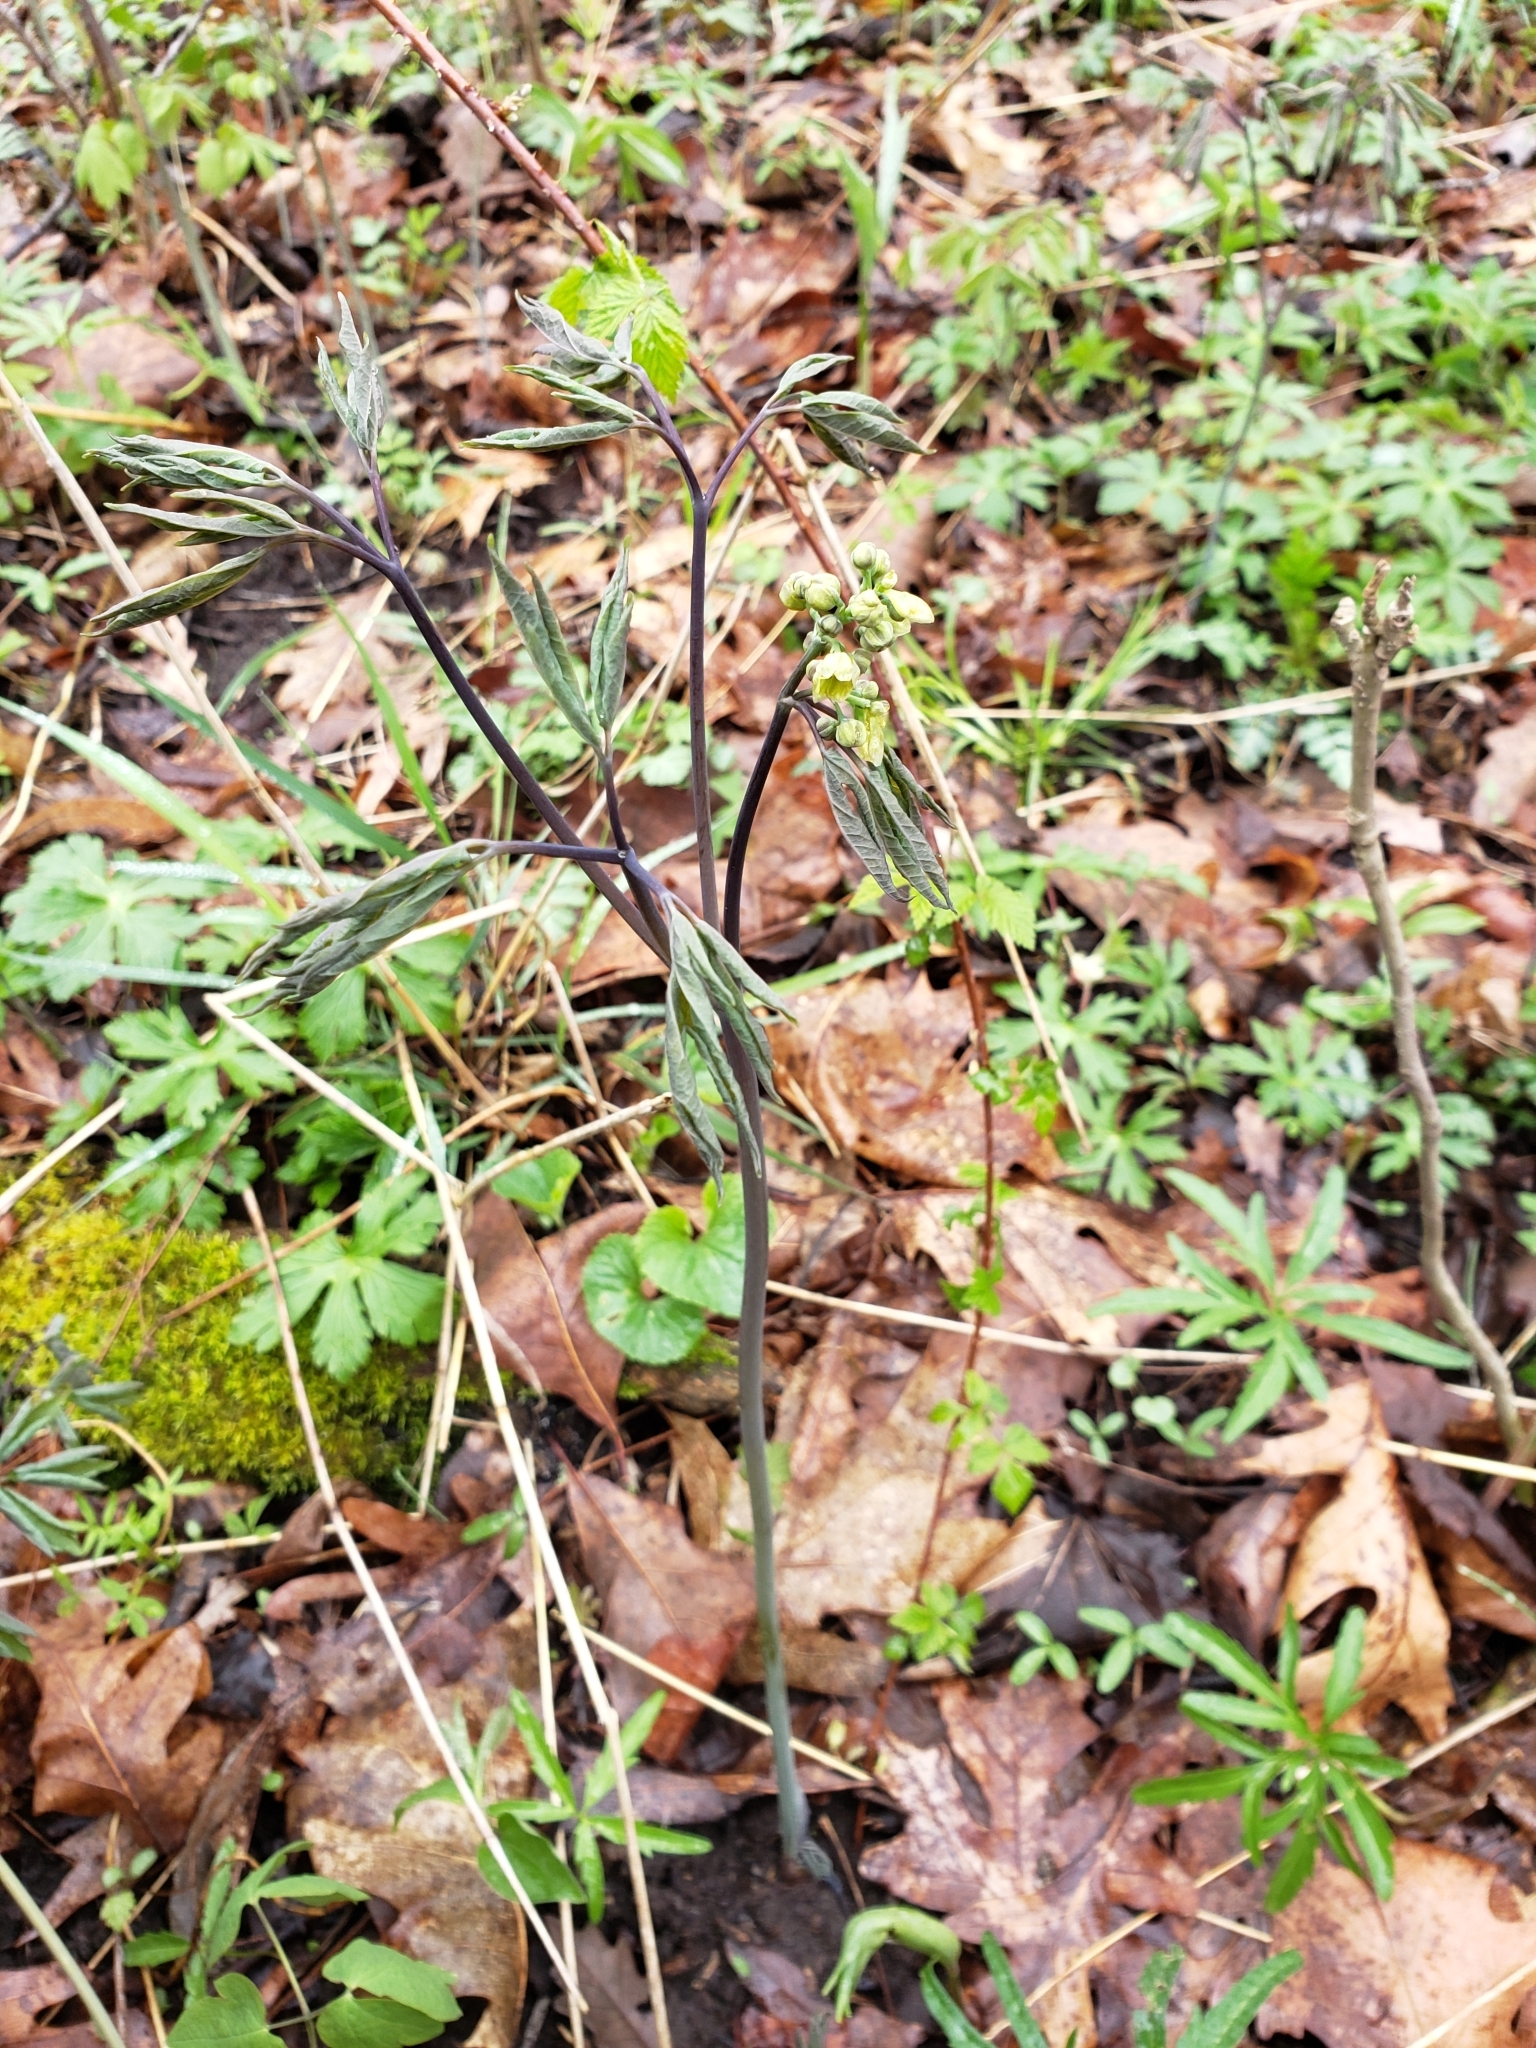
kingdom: Plantae
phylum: Tracheophyta
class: Magnoliopsida
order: Ranunculales
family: Berberidaceae
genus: Caulophyllum
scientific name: Caulophyllum thalictroides
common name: Blue cohosh
